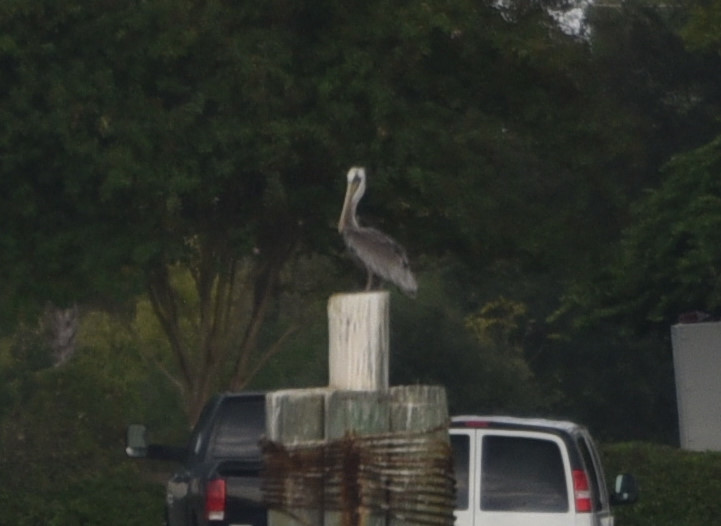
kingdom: Animalia
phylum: Chordata
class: Aves
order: Pelecaniformes
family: Pelecanidae
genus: Pelecanus
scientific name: Pelecanus occidentalis
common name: Brown pelican
